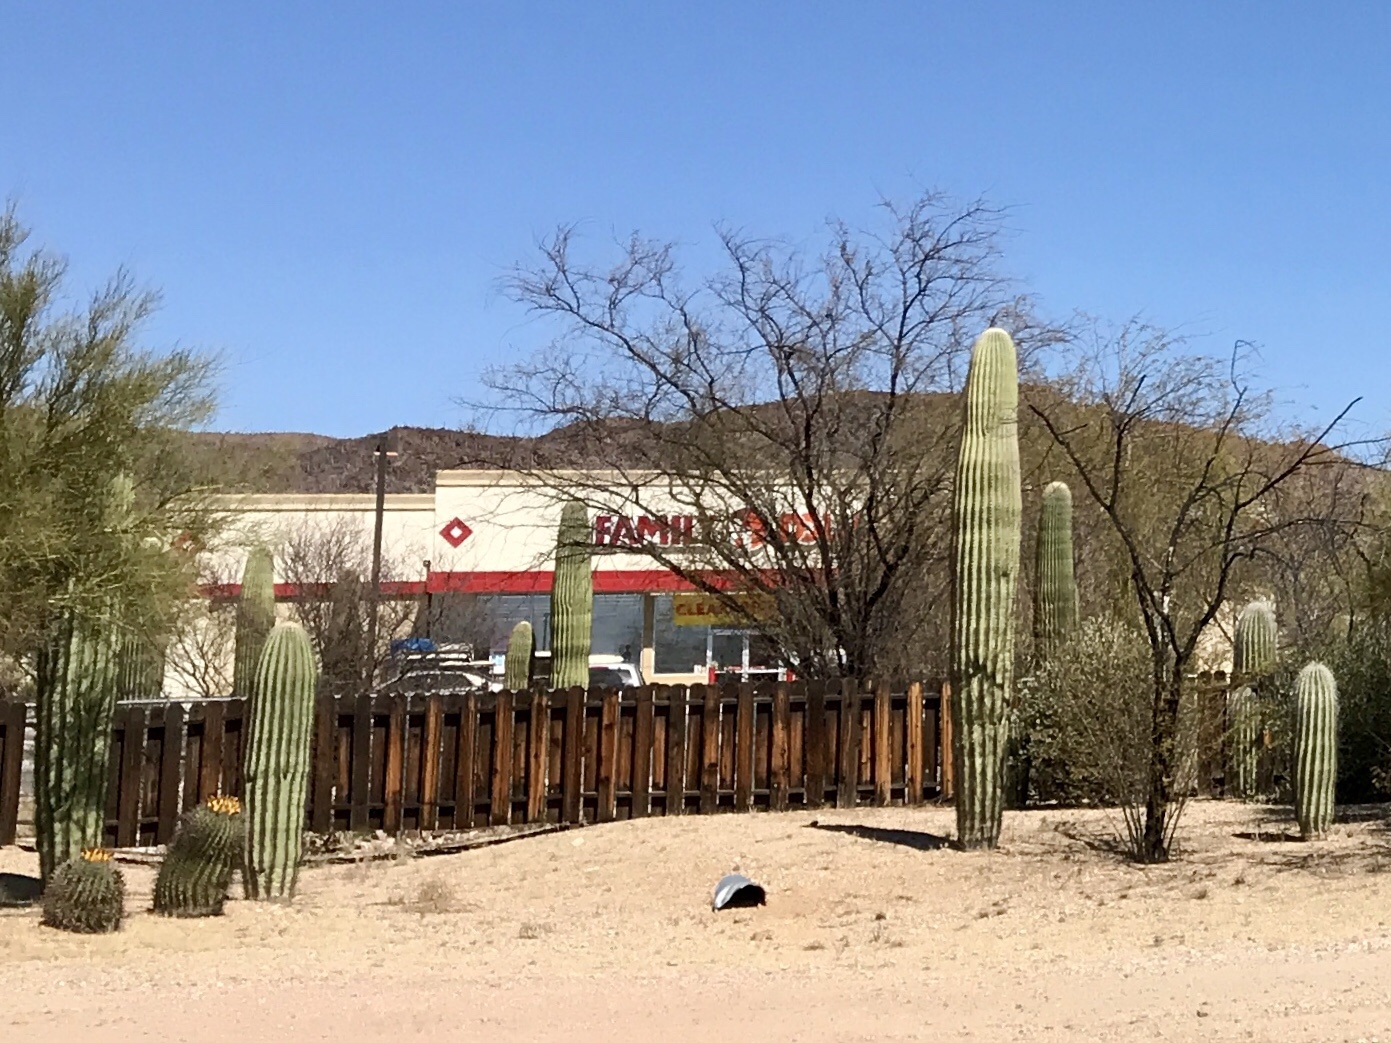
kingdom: Plantae
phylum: Tracheophyta
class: Magnoliopsida
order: Caryophyllales
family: Cactaceae
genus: Carnegiea
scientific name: Carnegiea gigantea
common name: Saguaro
